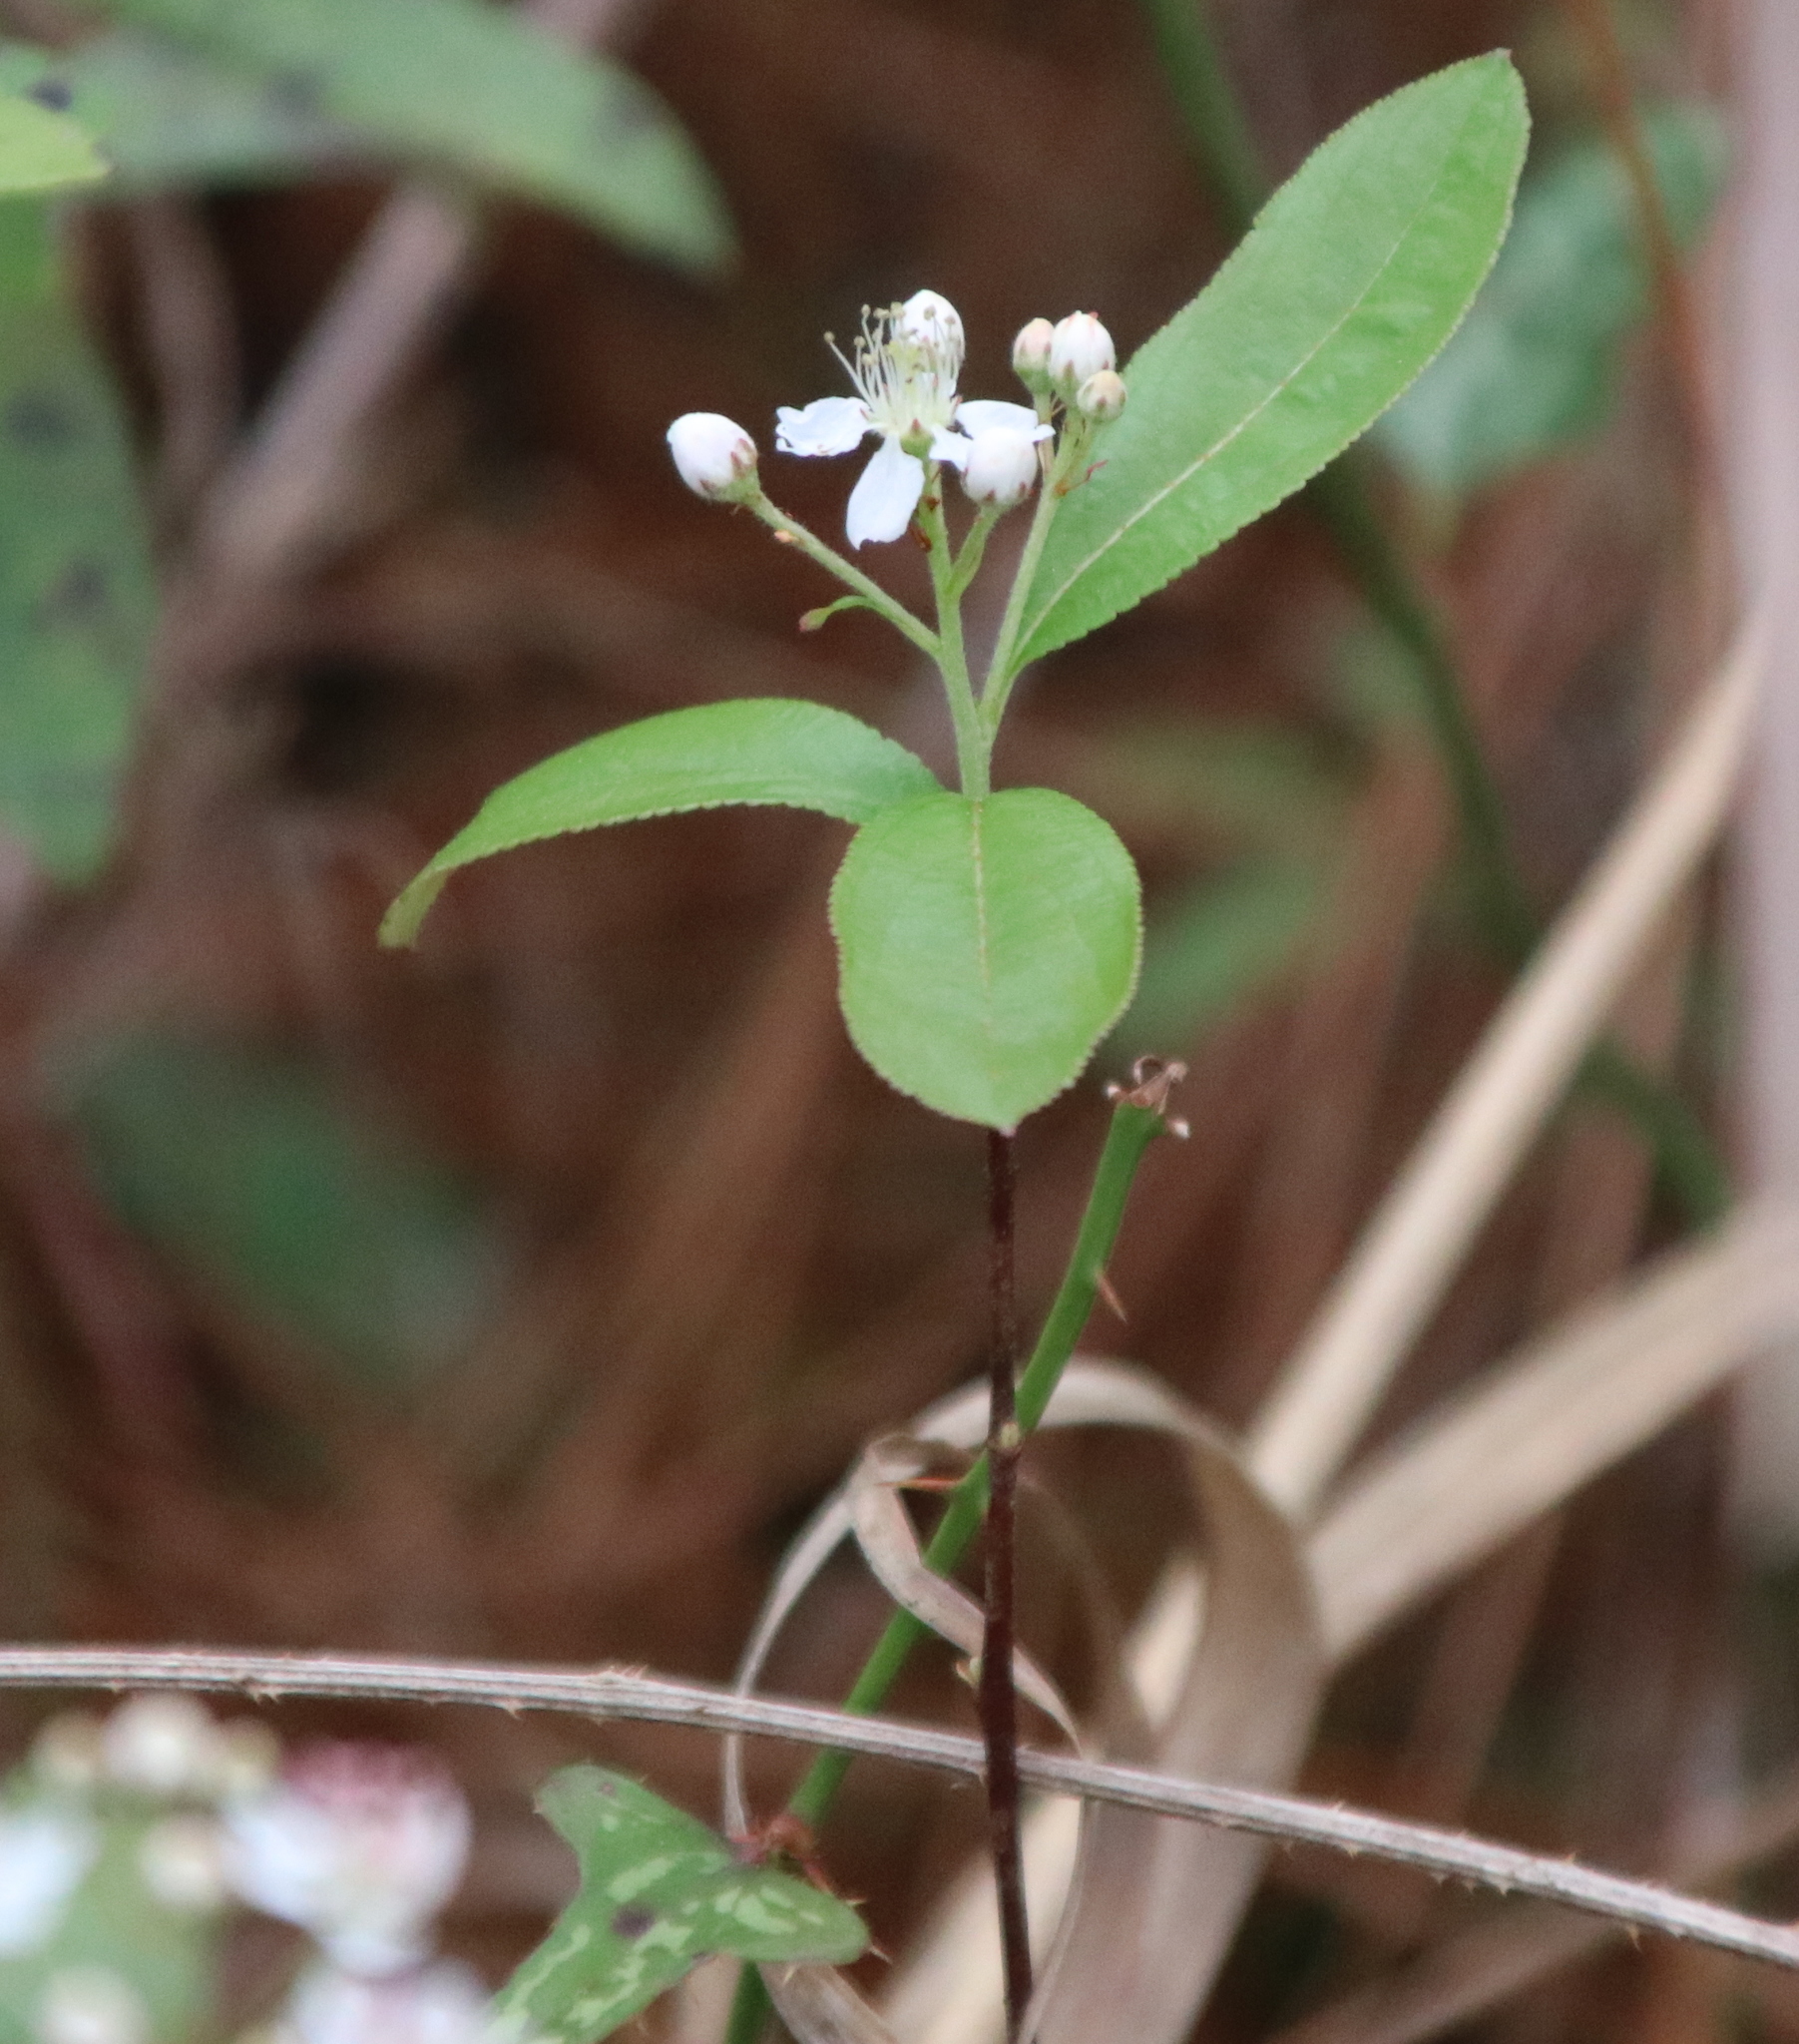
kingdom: Plantae
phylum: Tracheophyta
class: Magnoliopsida
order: Rosales
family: Rosaceae
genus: Aronia
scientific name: Aronia arbutifolia
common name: Red chokeberry
